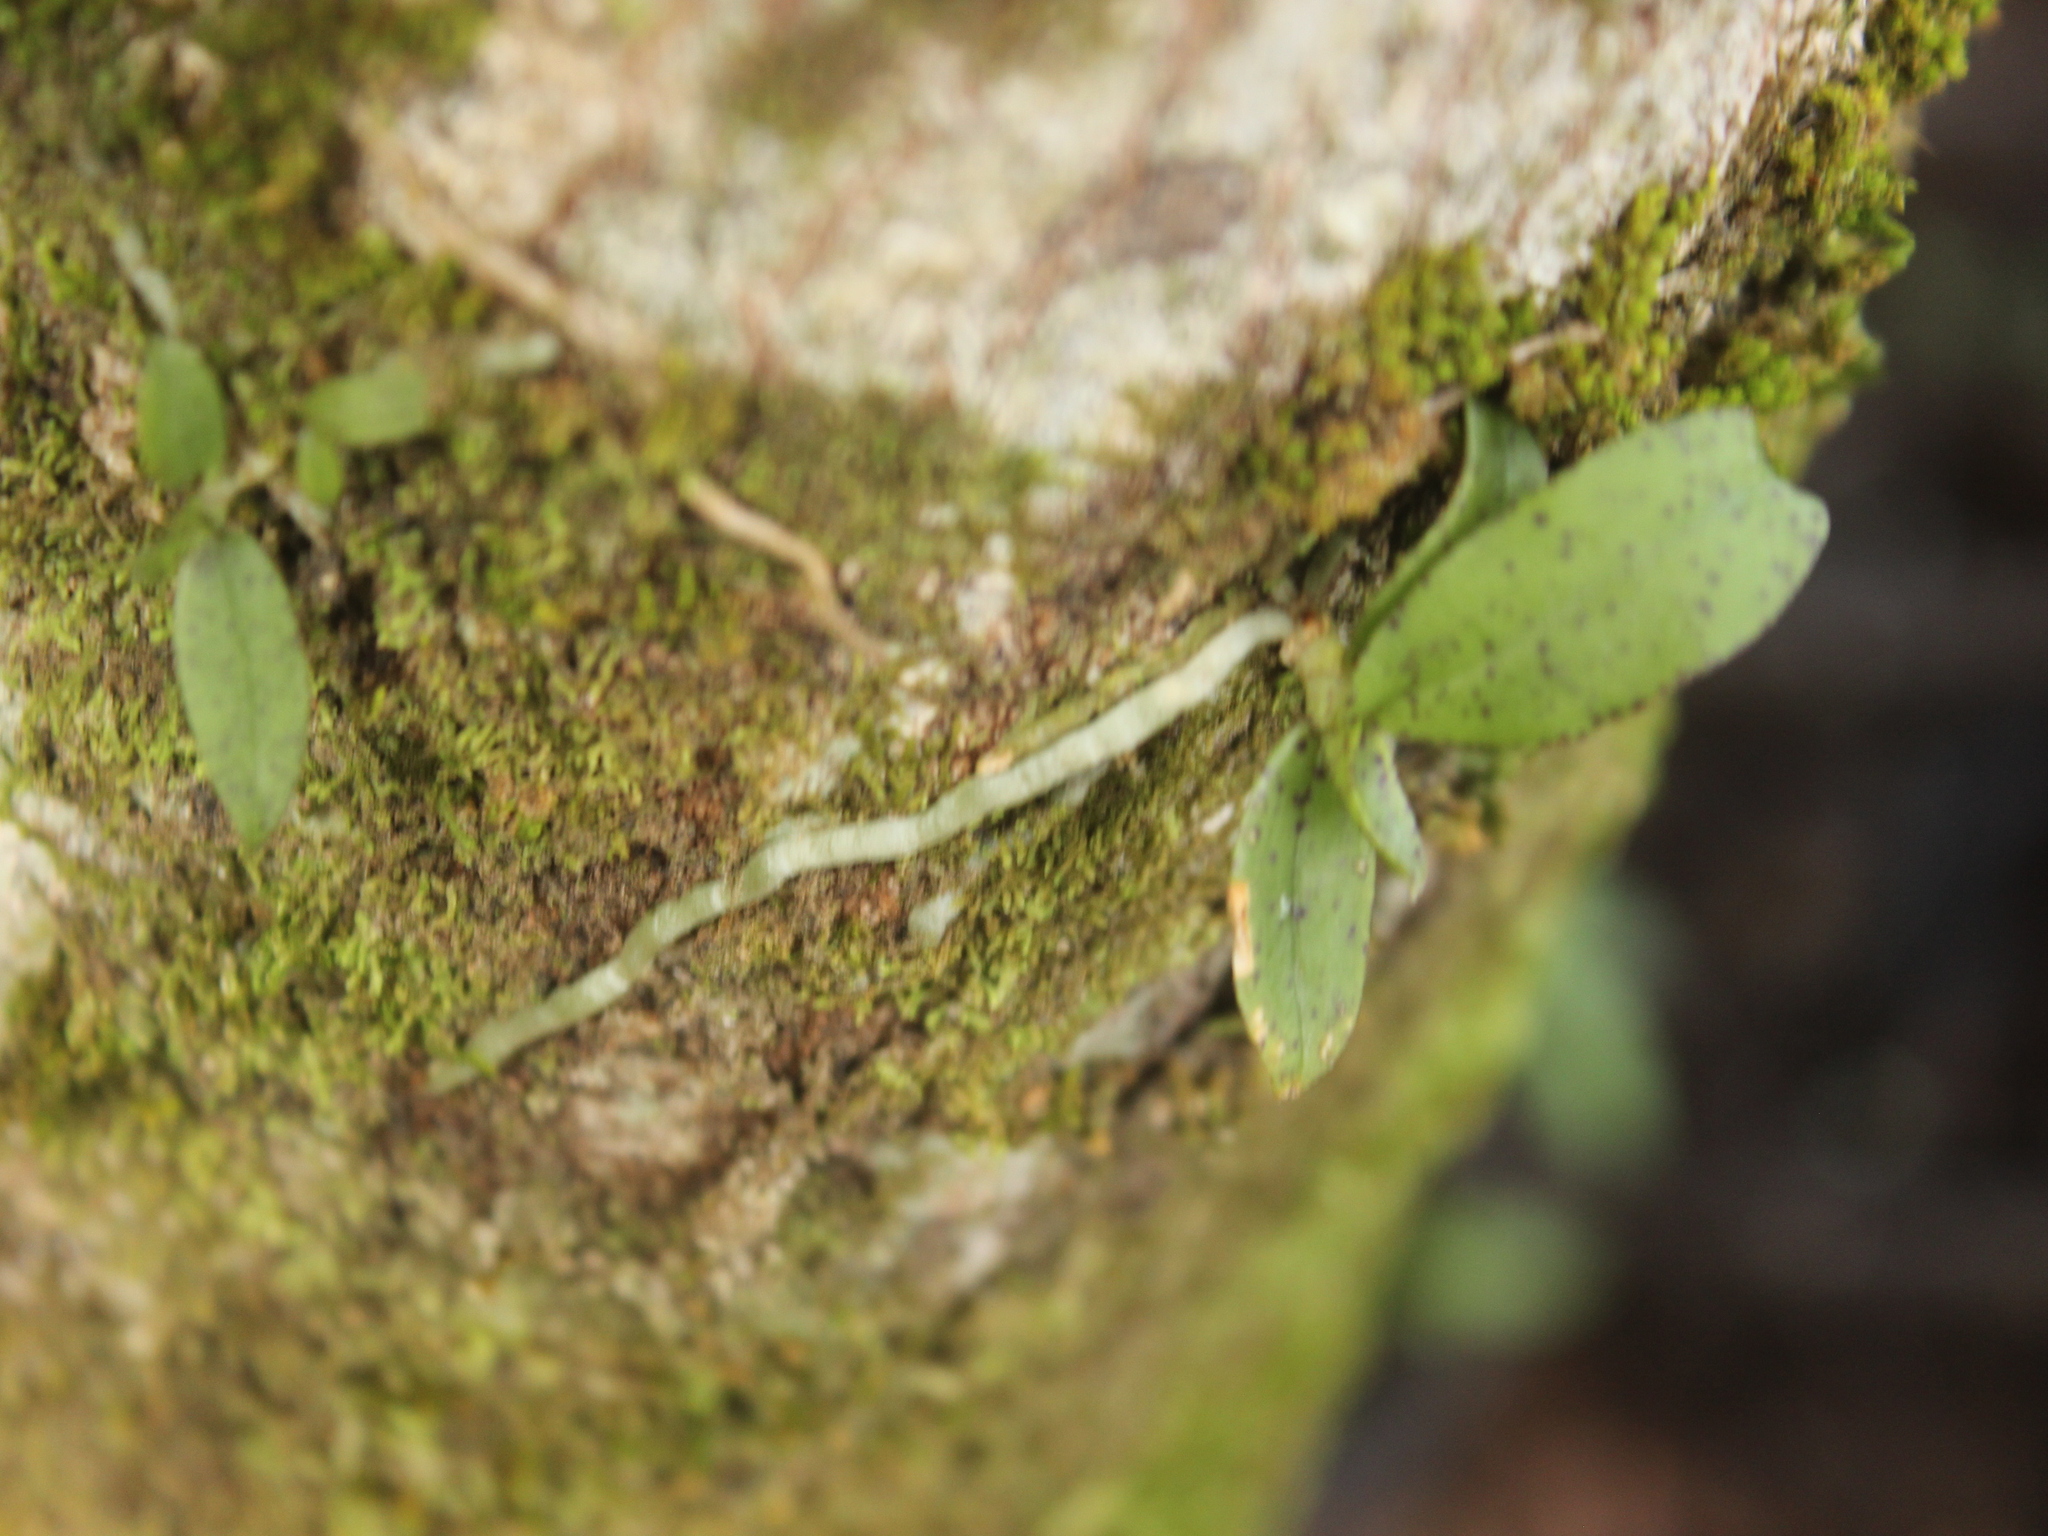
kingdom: Plantae
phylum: Tracheophyta
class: Liliopsida
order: Asparagales
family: Orchidaceae
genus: Drymoanthus
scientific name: Drymoanthus flavus
